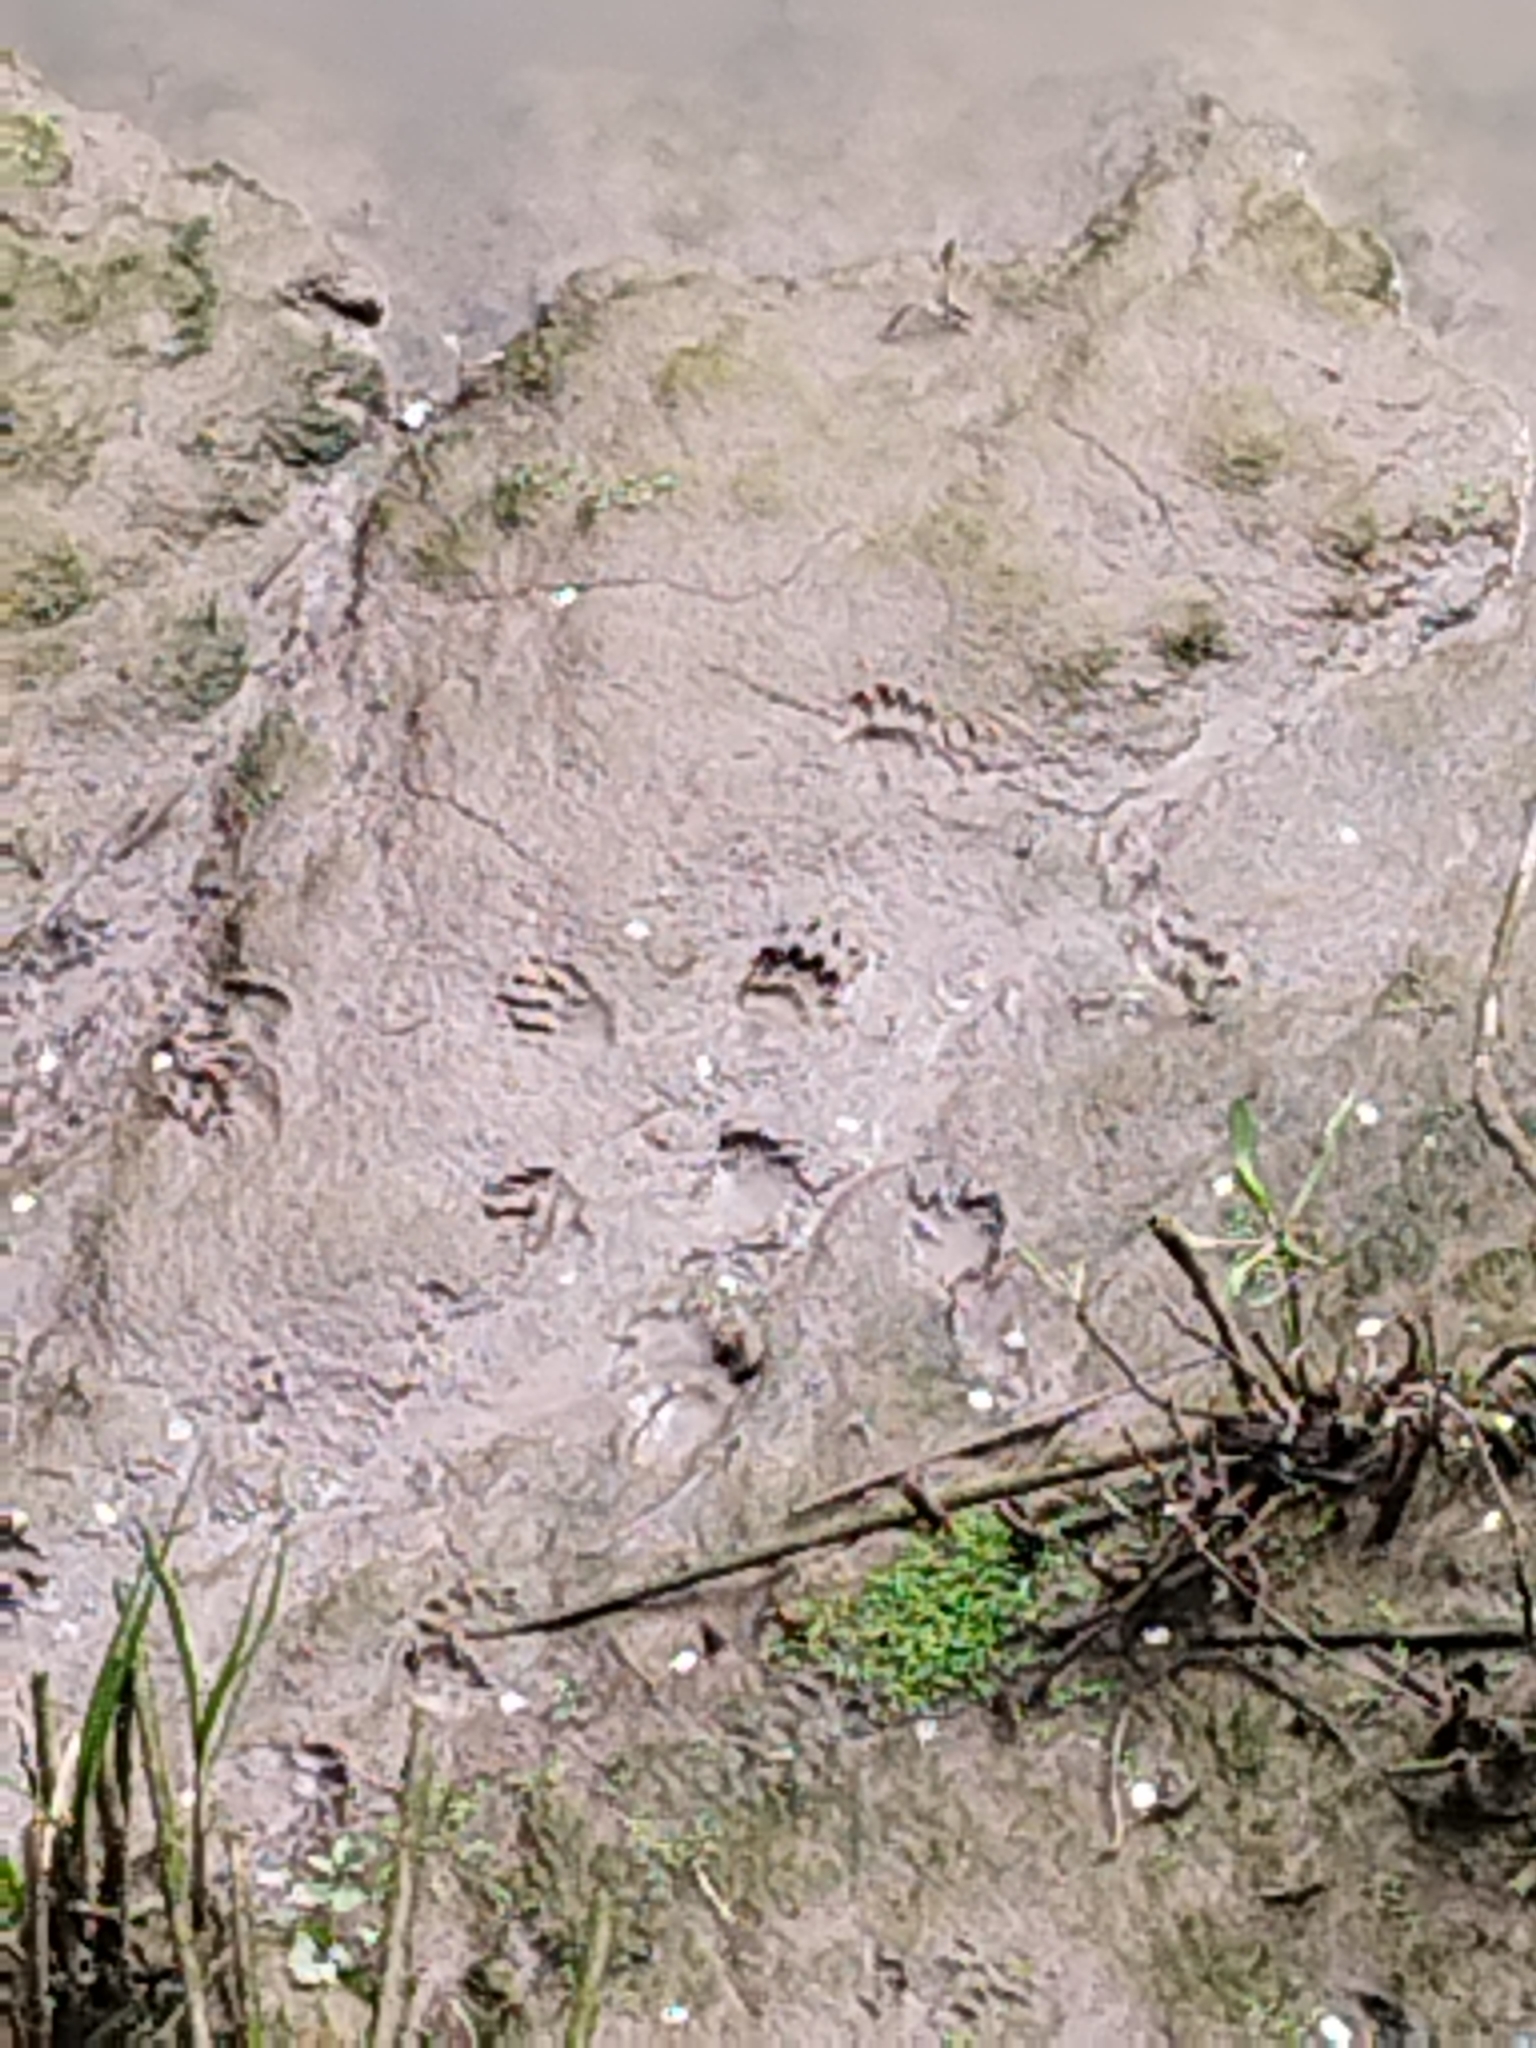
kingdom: Animalia
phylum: Chordata
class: Mammalia
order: Carnivora
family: Mustelidae
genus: Meles
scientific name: Meles meles
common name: Eurasian badger
